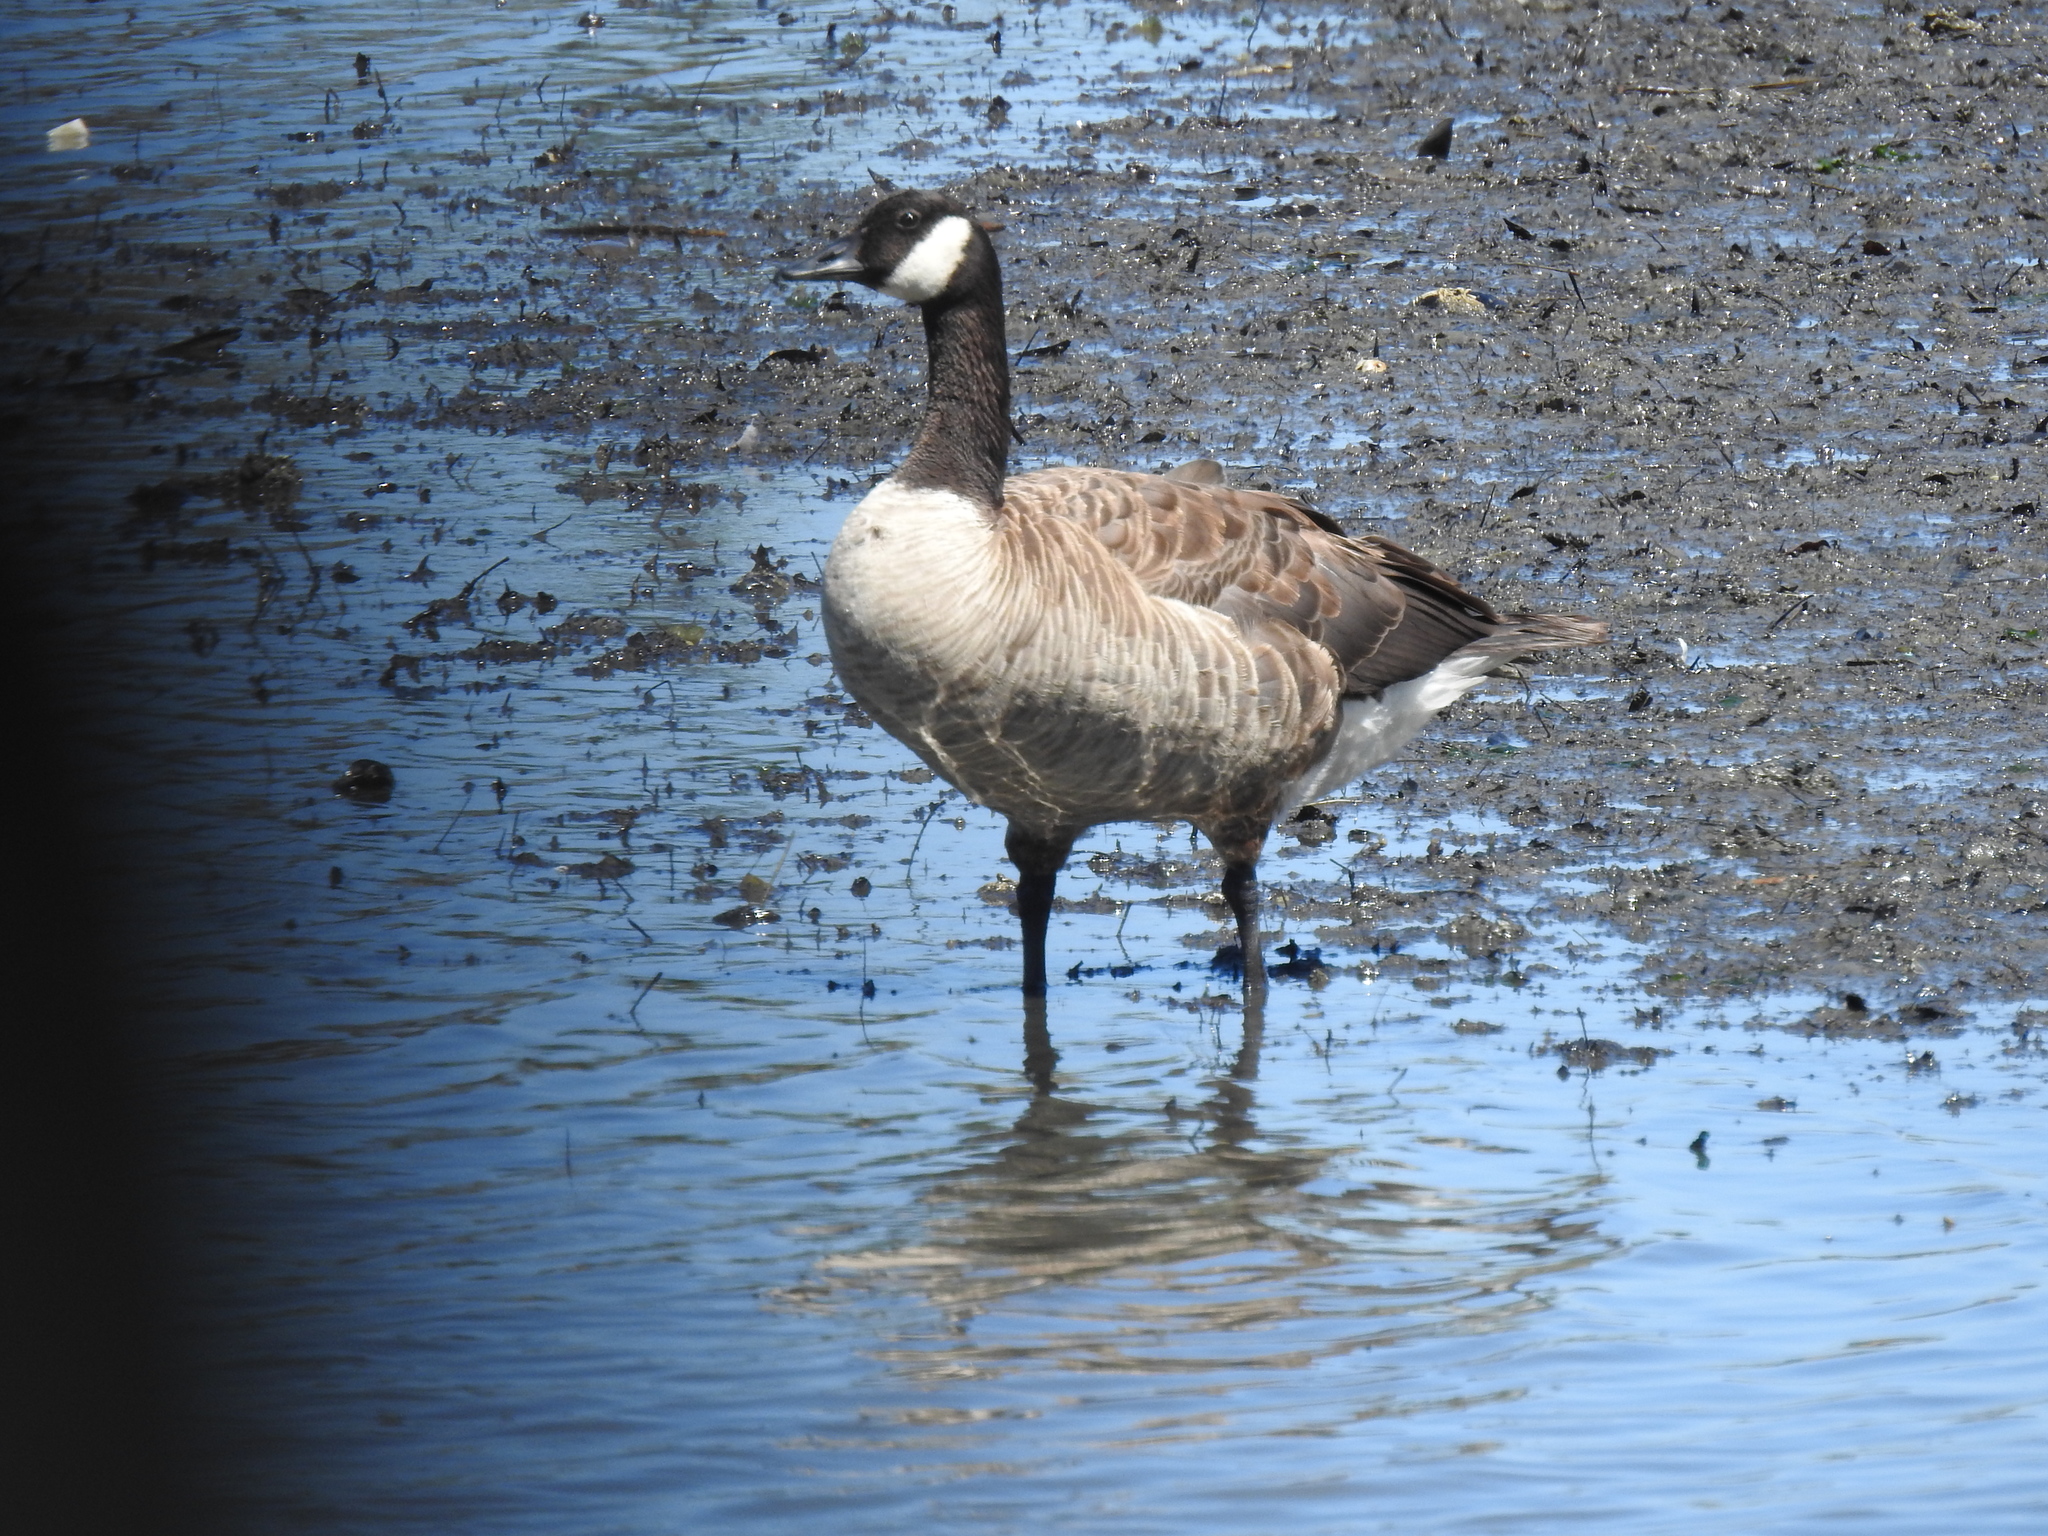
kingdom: Animalia
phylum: Chordata
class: Aves
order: Anseriformes
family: Anatidae
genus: Branta
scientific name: Branta canadensis
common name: Canada goose
